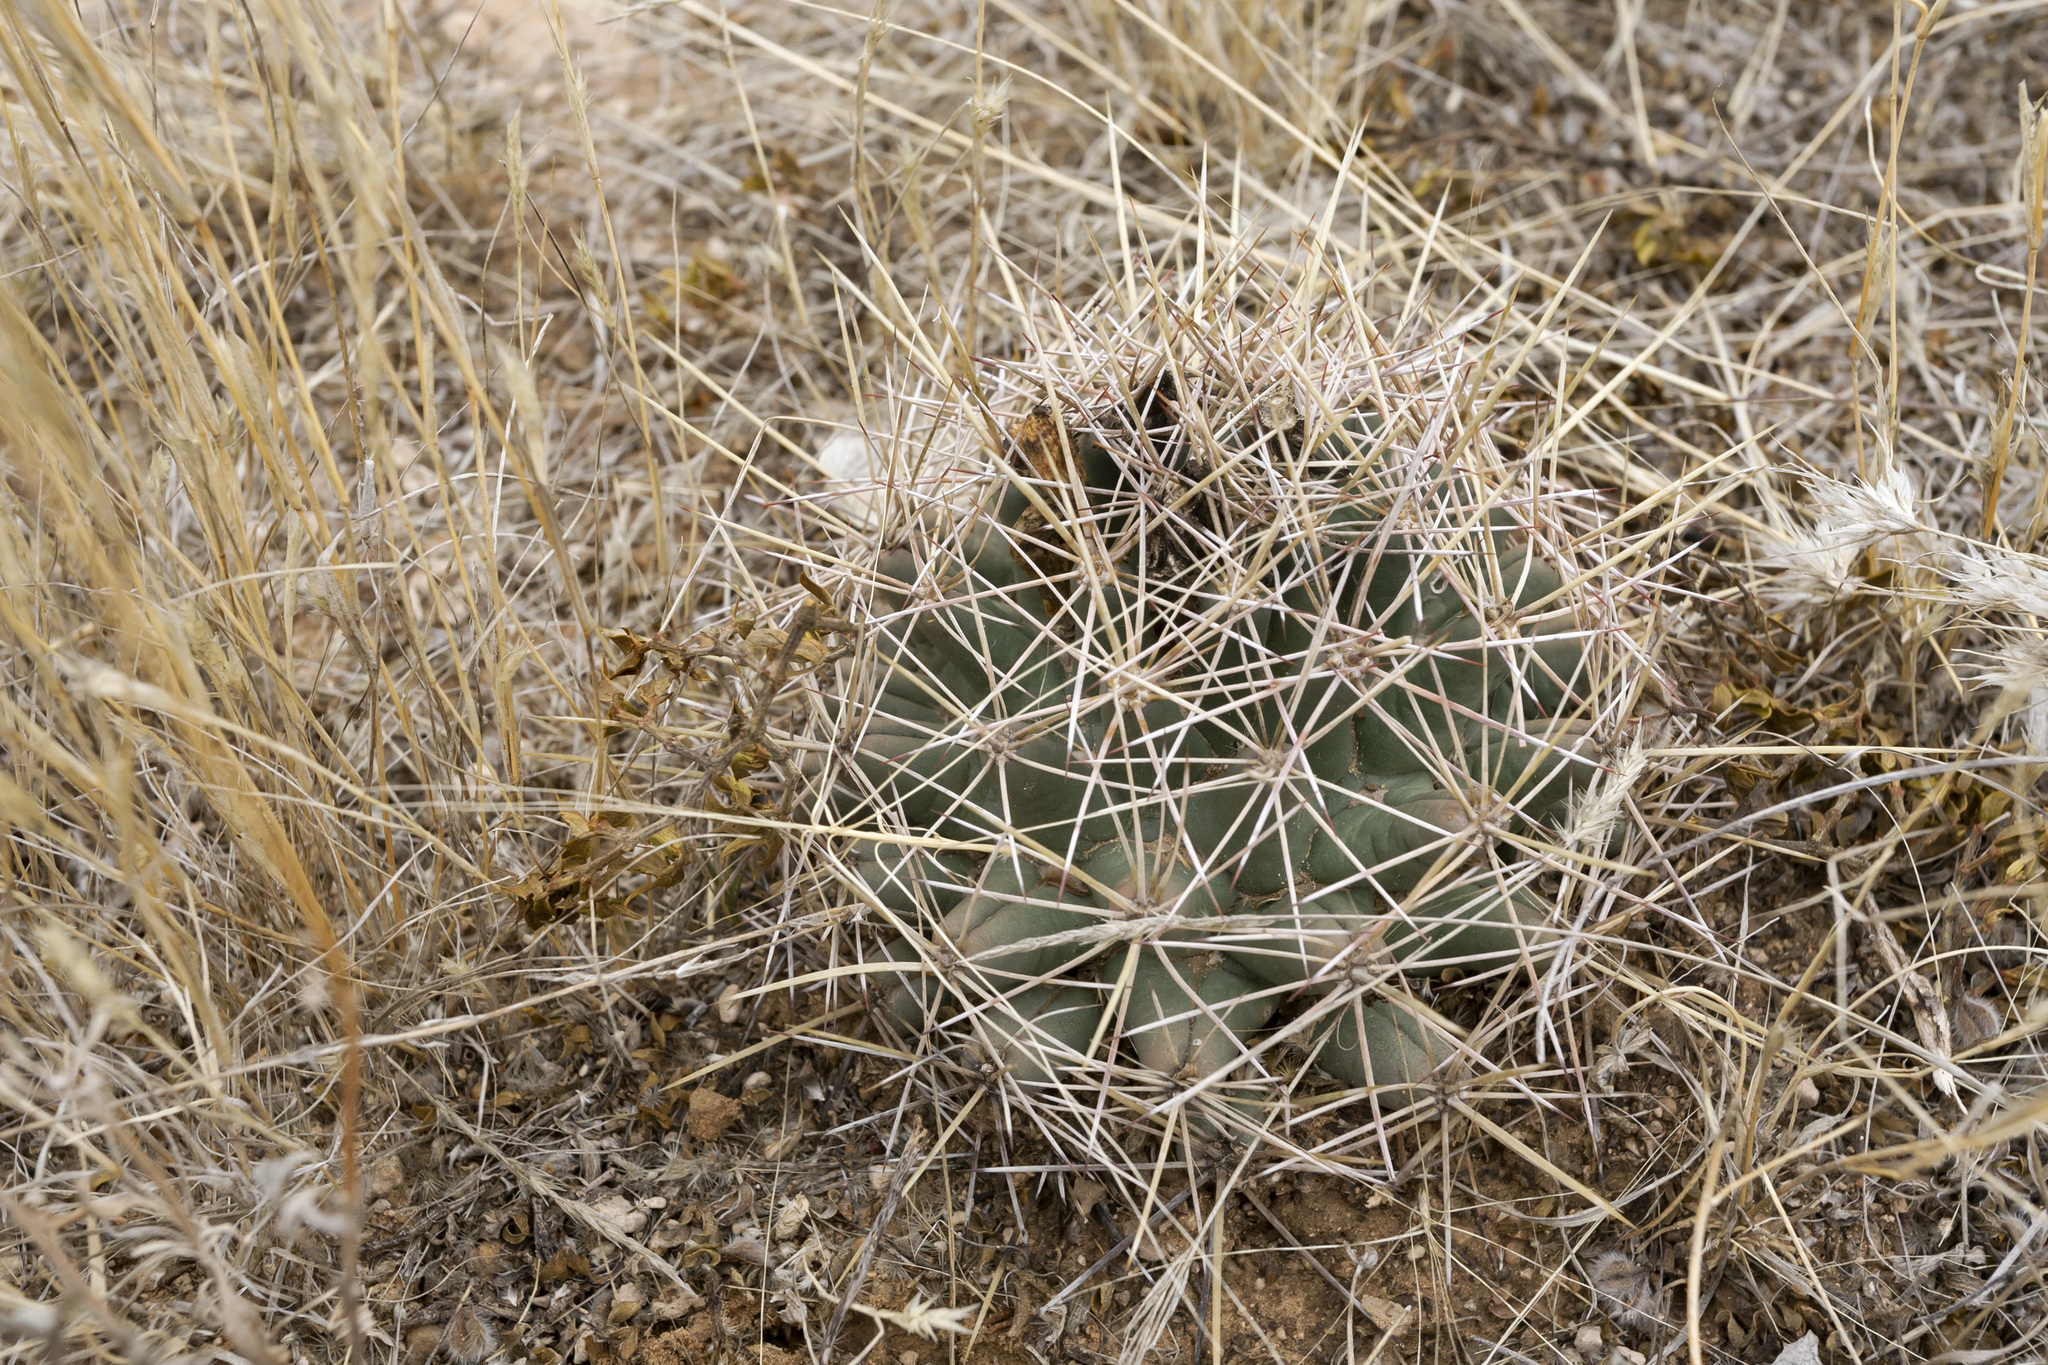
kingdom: Plantae
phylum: Tracheophyta
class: Magnoliopsida
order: Caryophyllales
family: Cactaceae
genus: Coryphantha
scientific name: Coryphantha robustispina
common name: Pima pineapple cactus
